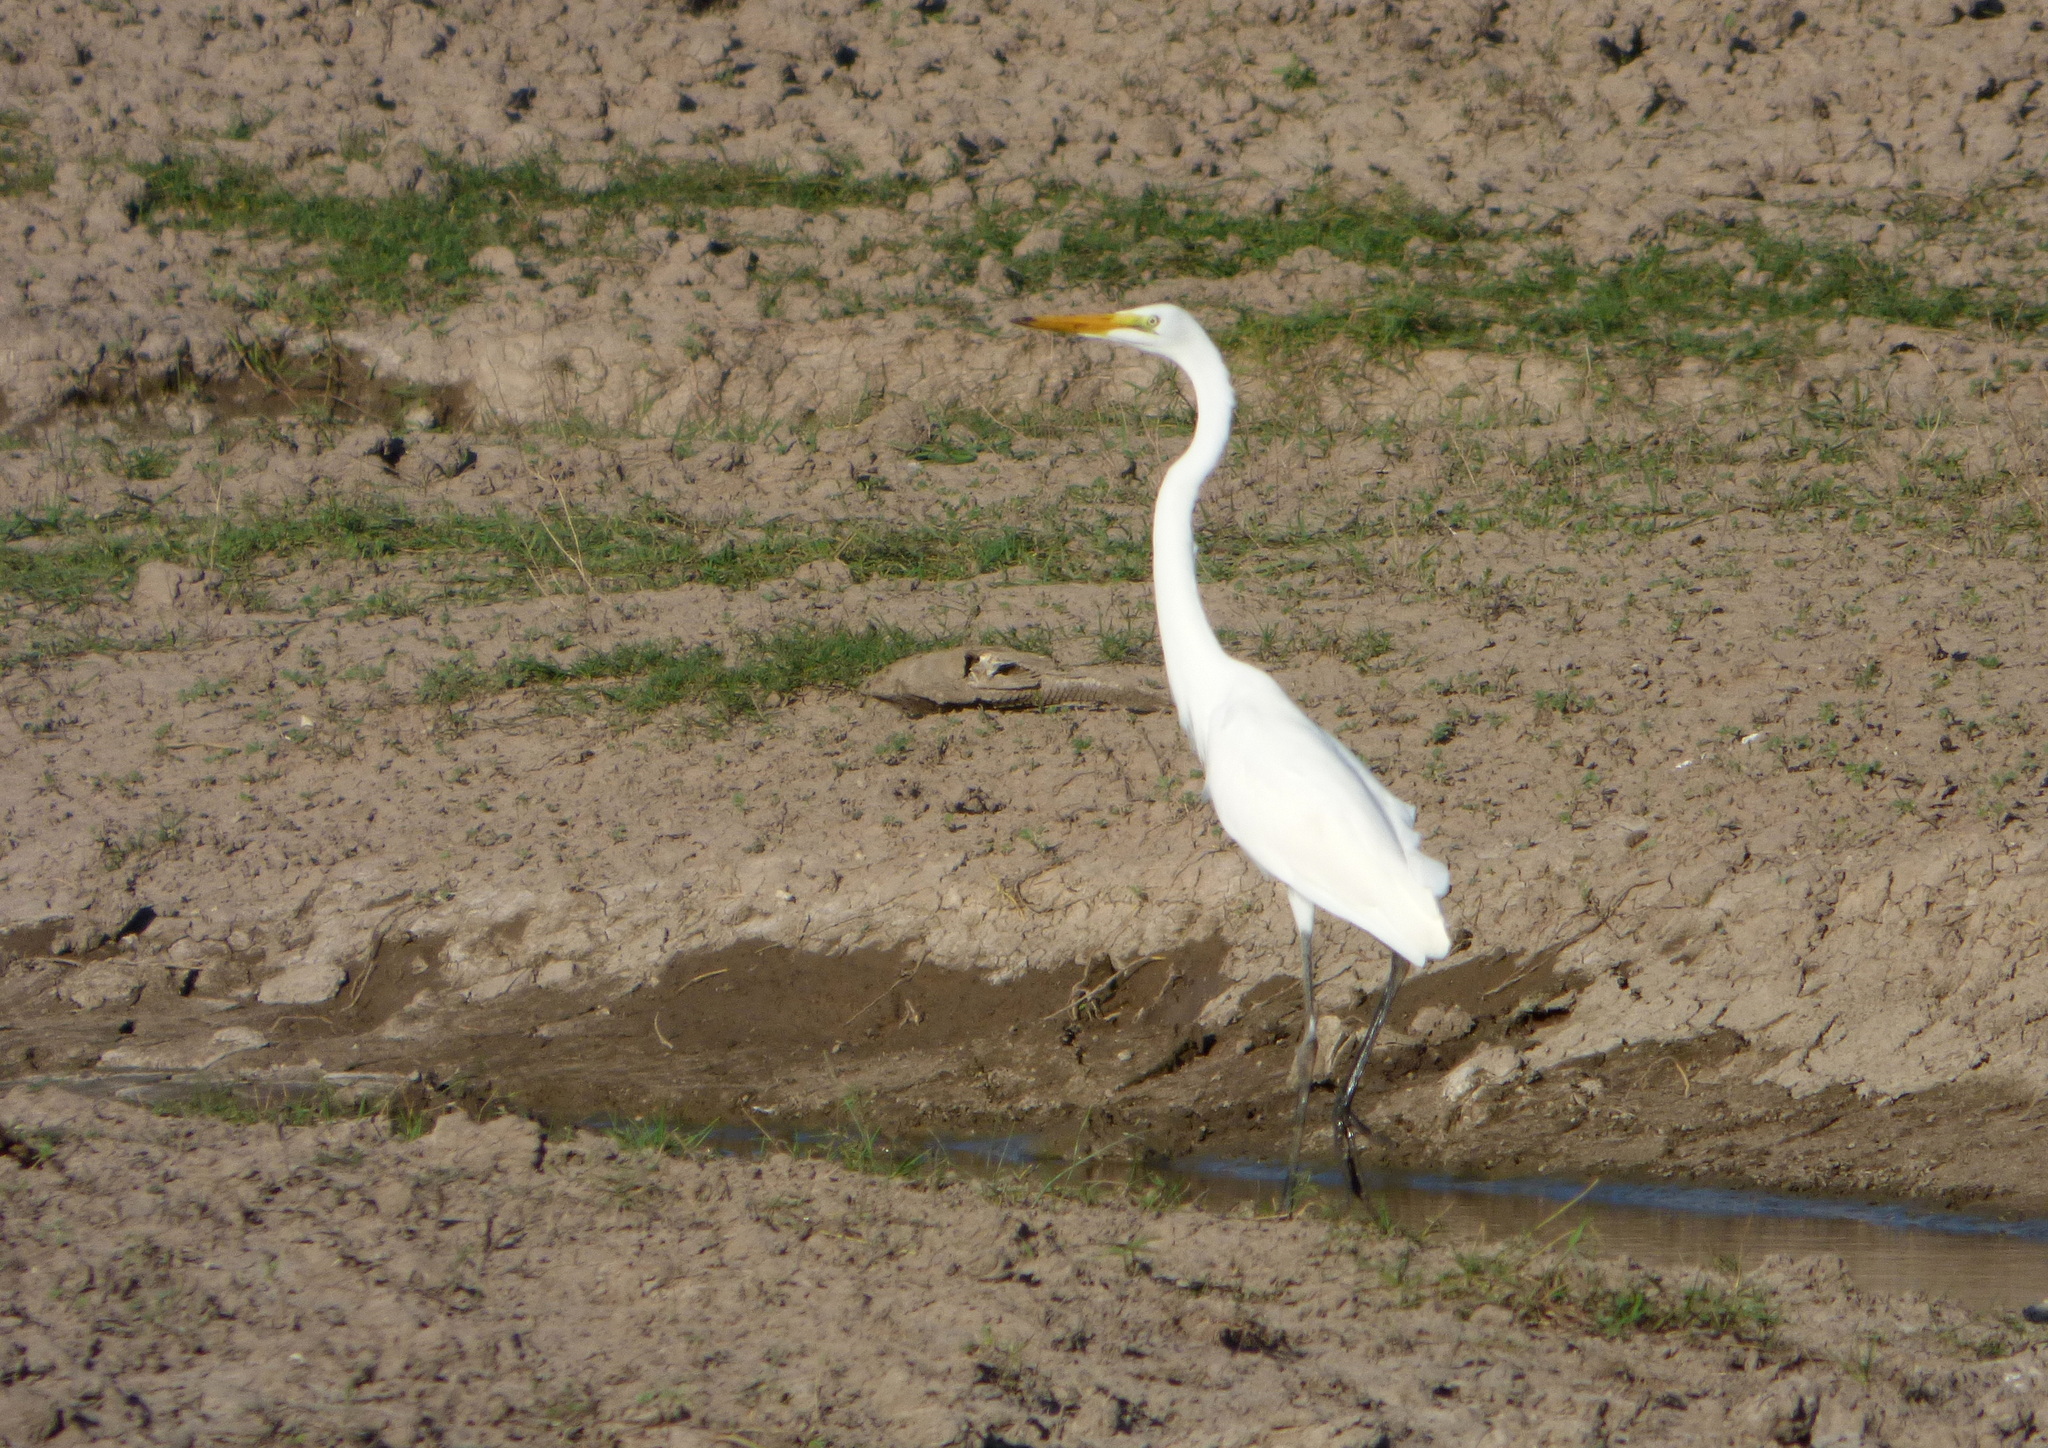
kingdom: Animalia
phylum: Chordata
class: Aves
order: Pelecaniformes
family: Ardeidae
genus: Ardea
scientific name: Ardea alba
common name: Great egret
